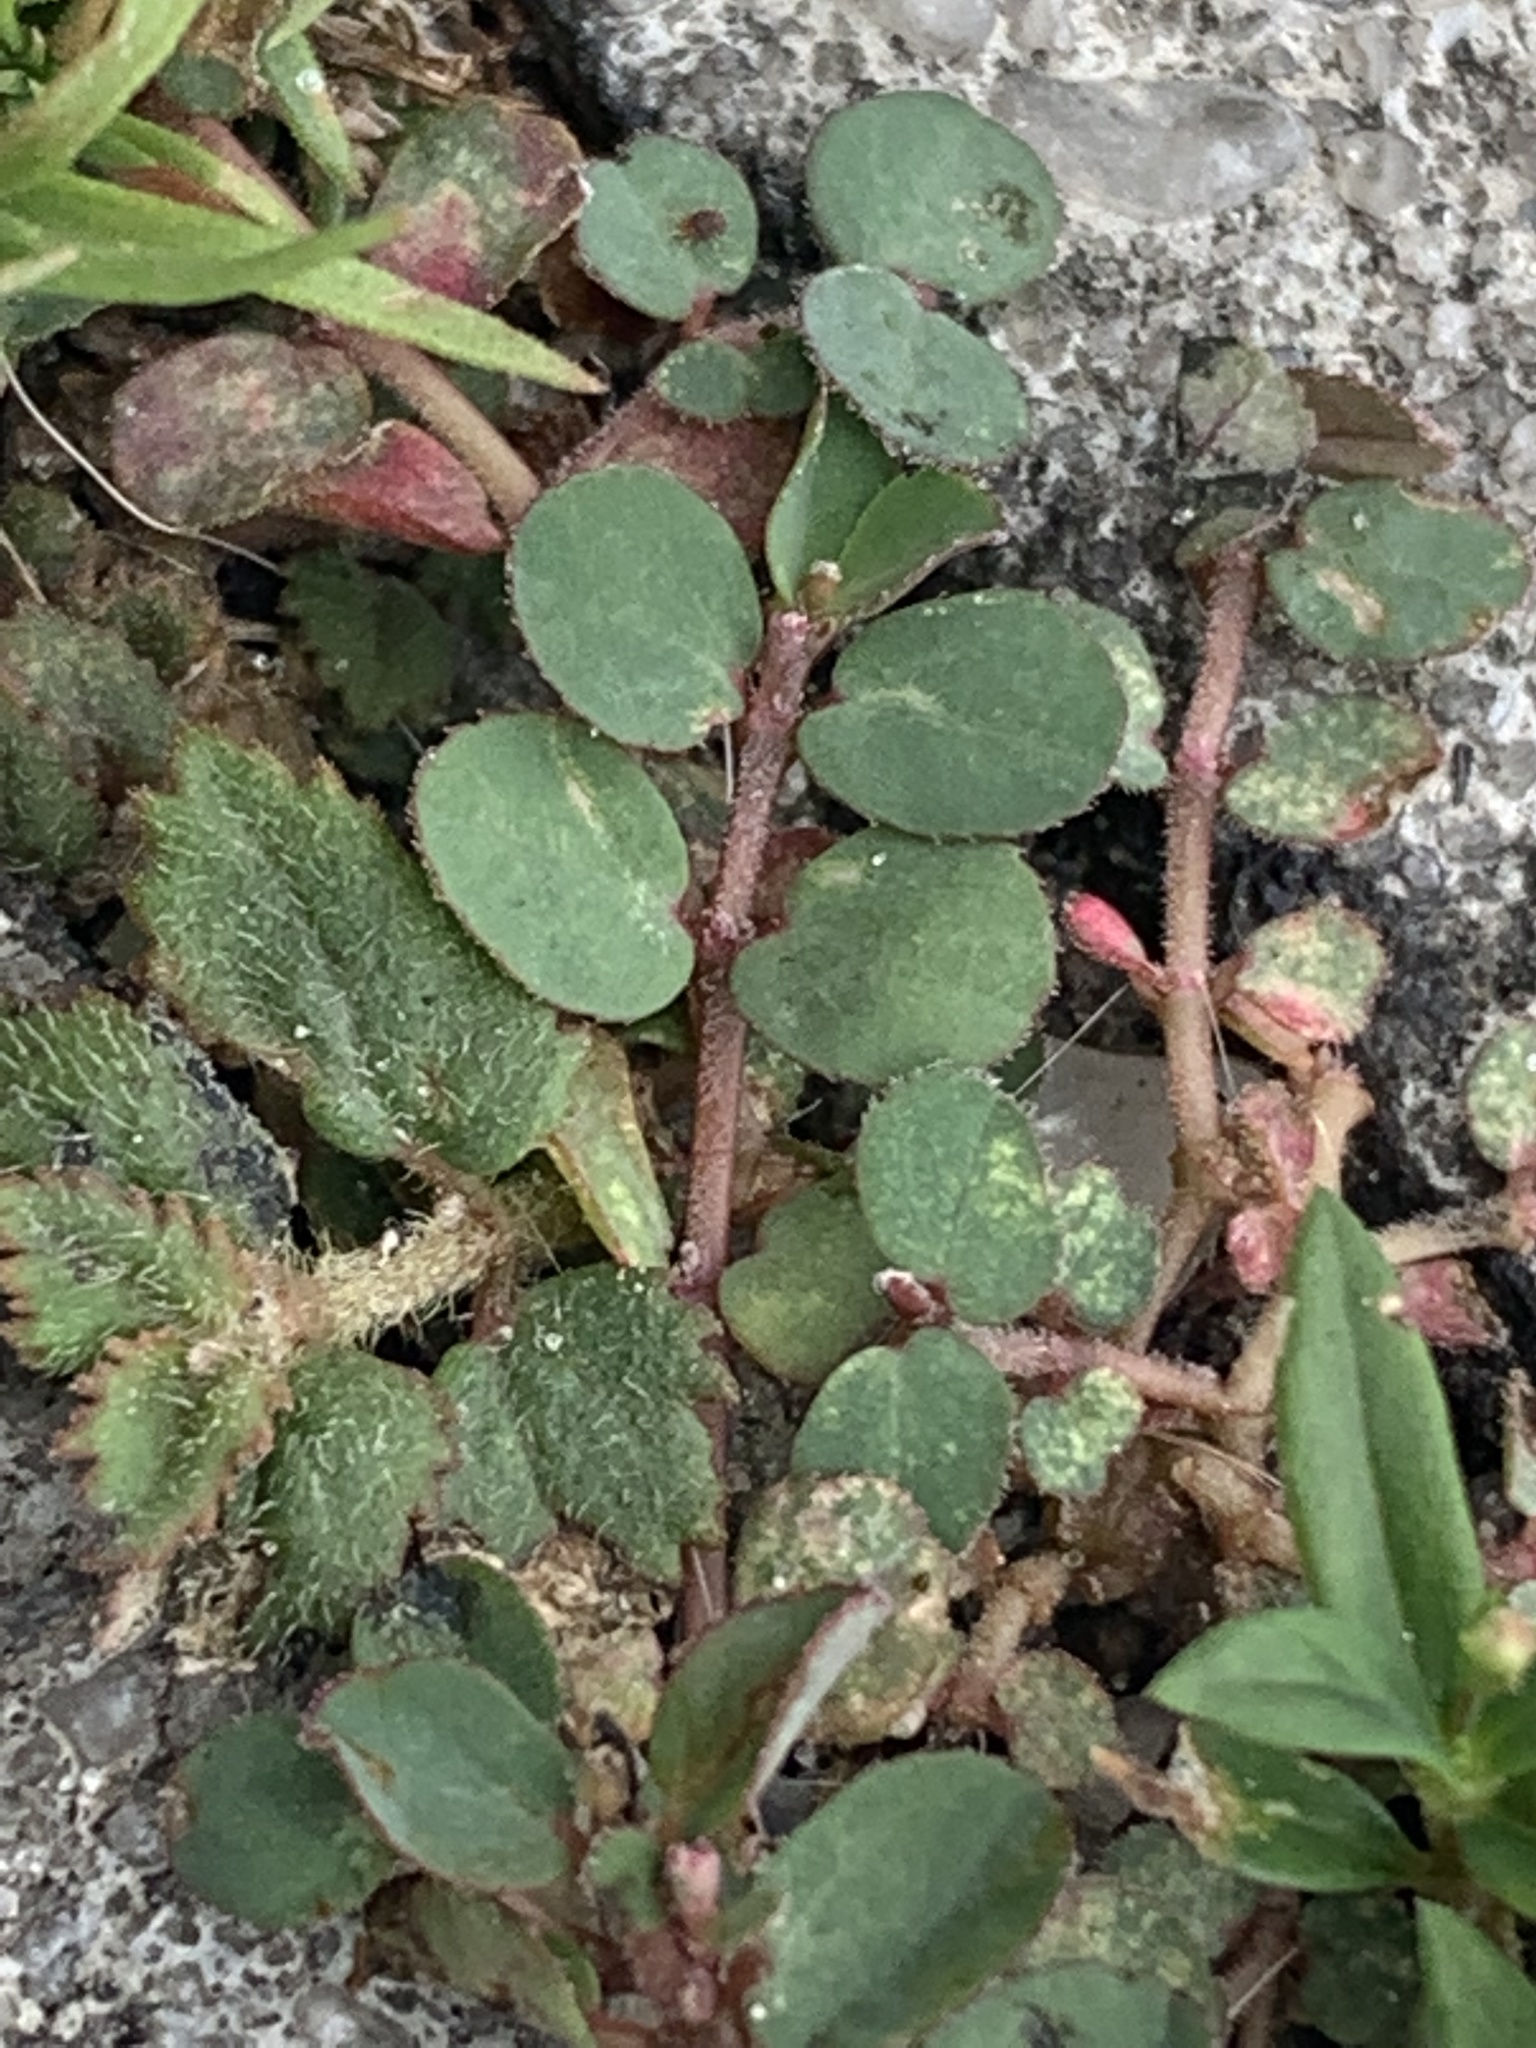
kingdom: Plantae
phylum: Tracheophyta
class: Magnoliopsida
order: Malpighiales
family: Euphorbiaceae
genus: Euphorbia
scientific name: Euphorbia prostrata
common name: Prostrate sandmat
